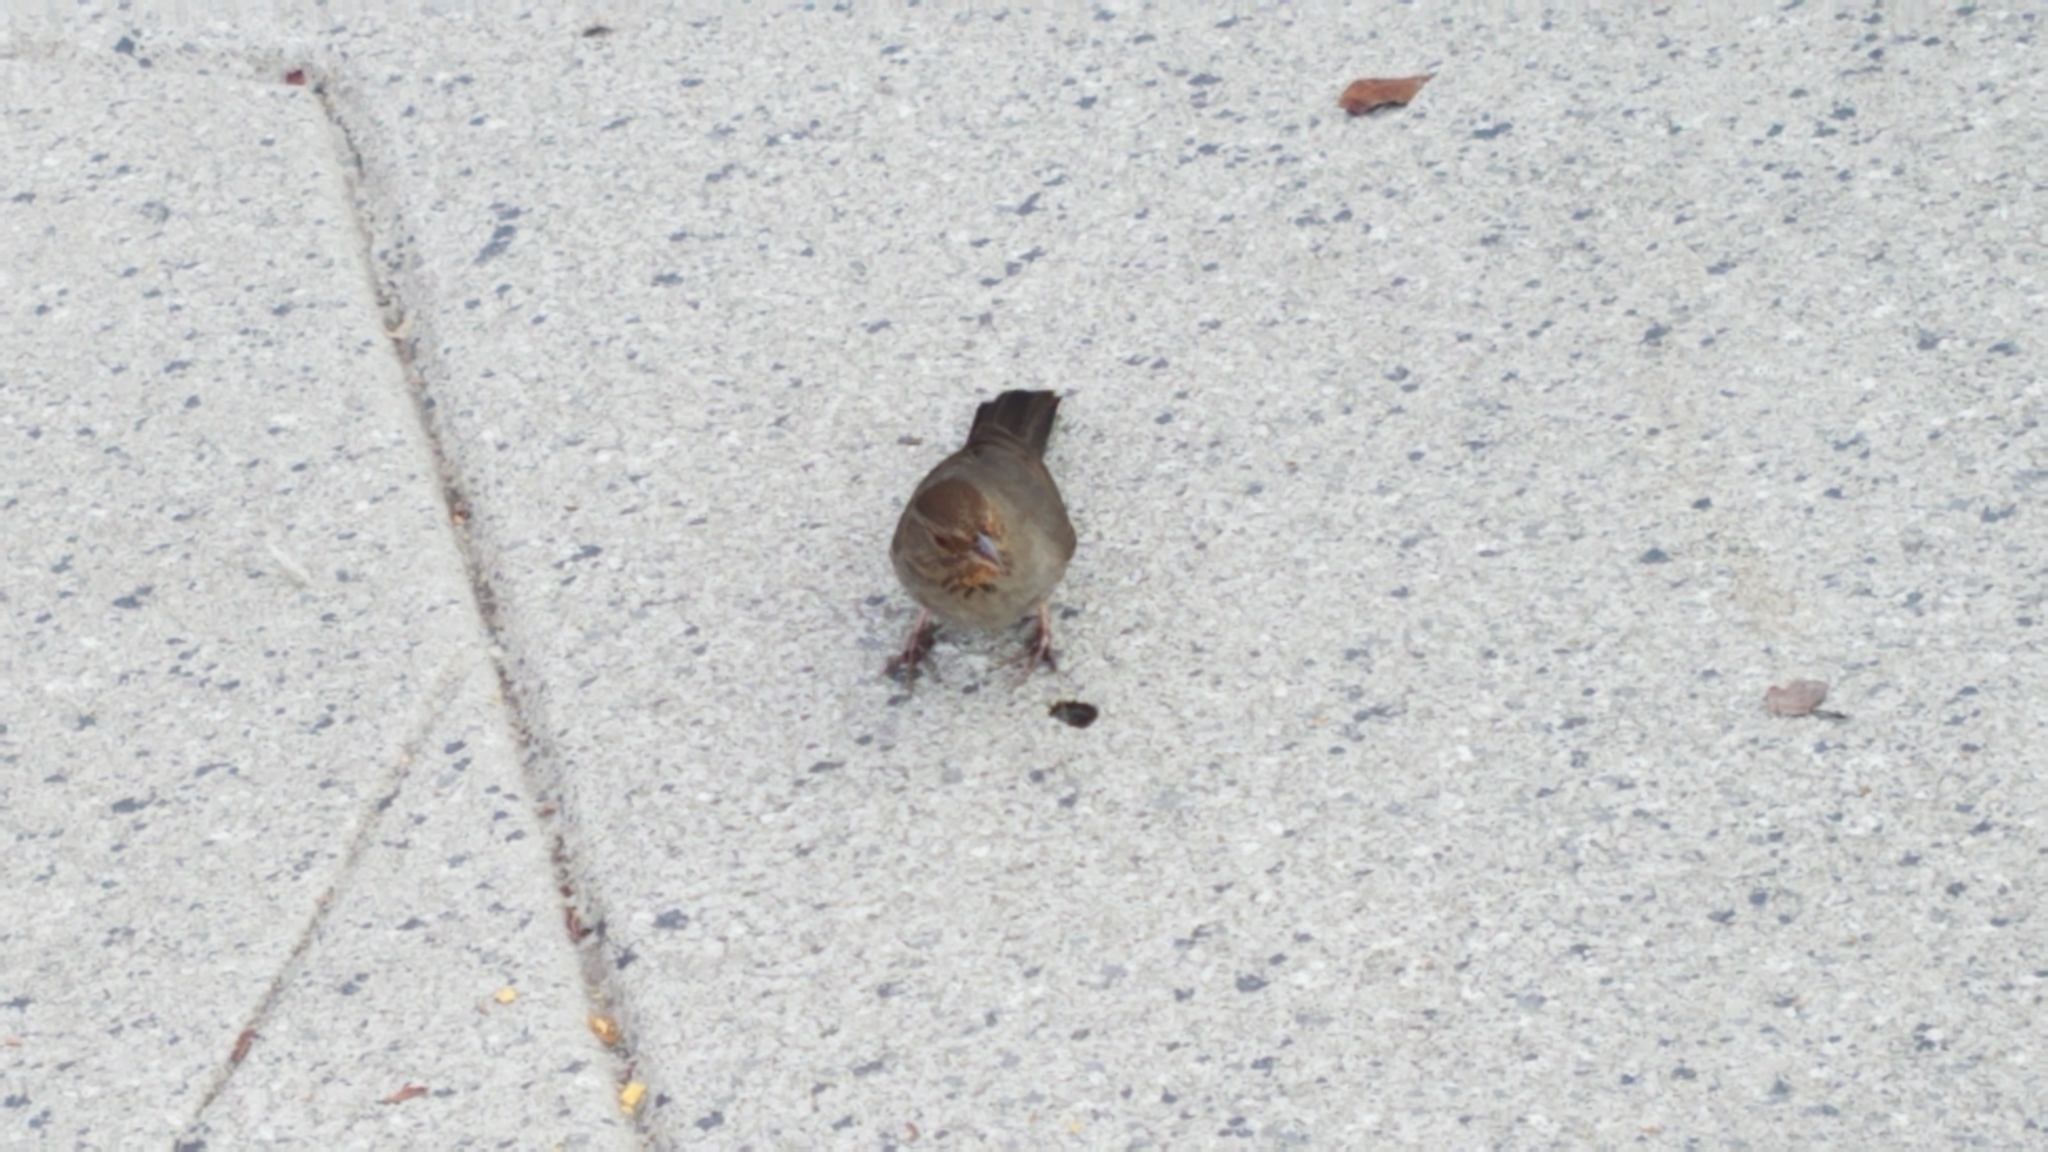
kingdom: Animalia
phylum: Chordata
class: Aves
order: Passeriformes
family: Passerellidae
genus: Melozone
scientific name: Melozone crissalis
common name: California towhee
